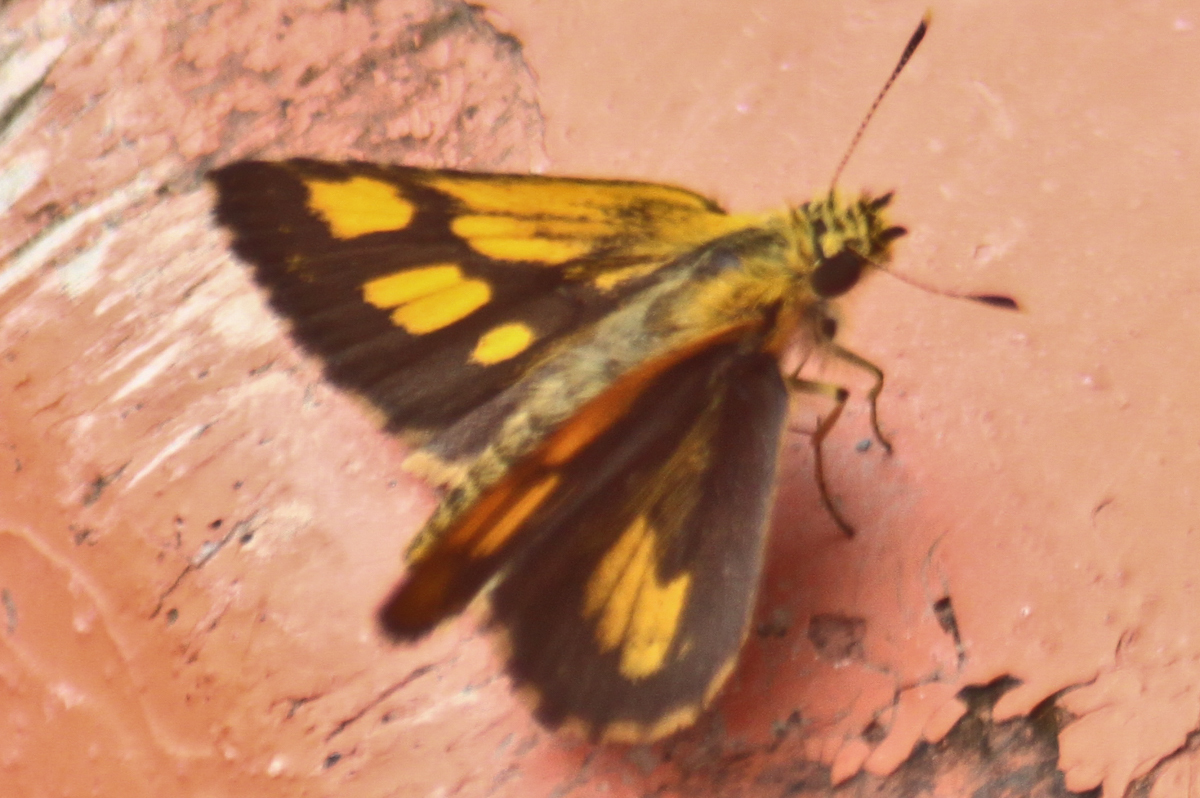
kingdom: Animalia
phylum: Arthropoda
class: Insecta
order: Lepidoptera
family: Hesperiidae
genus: Ampittia
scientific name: Ampittia dioscorides
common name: Common bush hopper
